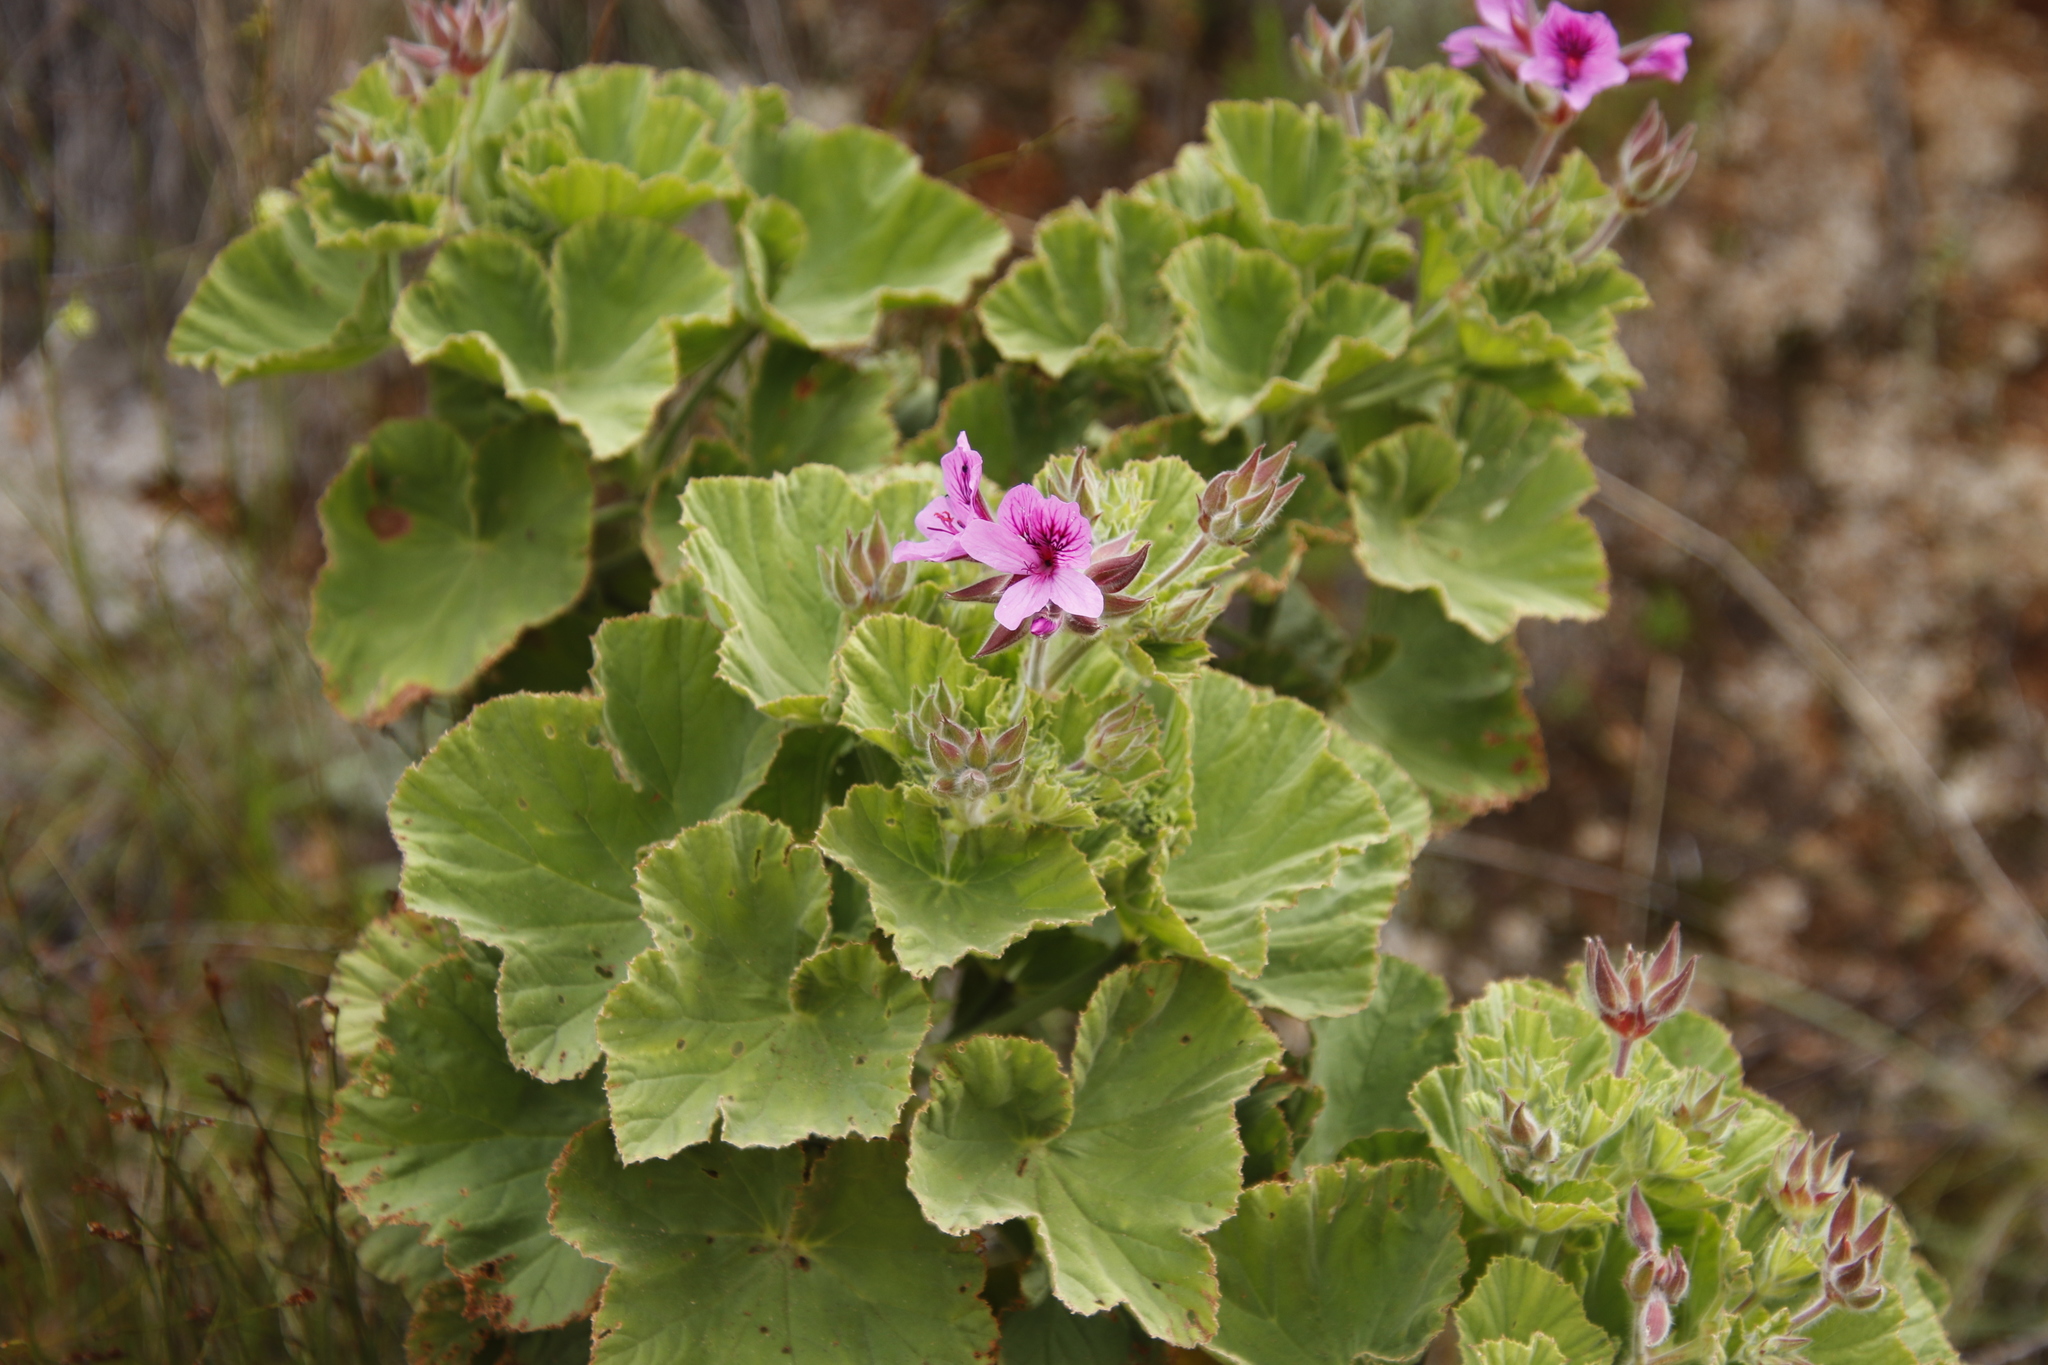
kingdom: Plantae
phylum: Tracheophyta
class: Magnoliopsida
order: Geraniales
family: Geraniaceae
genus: Pelargonium
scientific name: Pelargonium cucullatum
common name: Tree pelargonium
